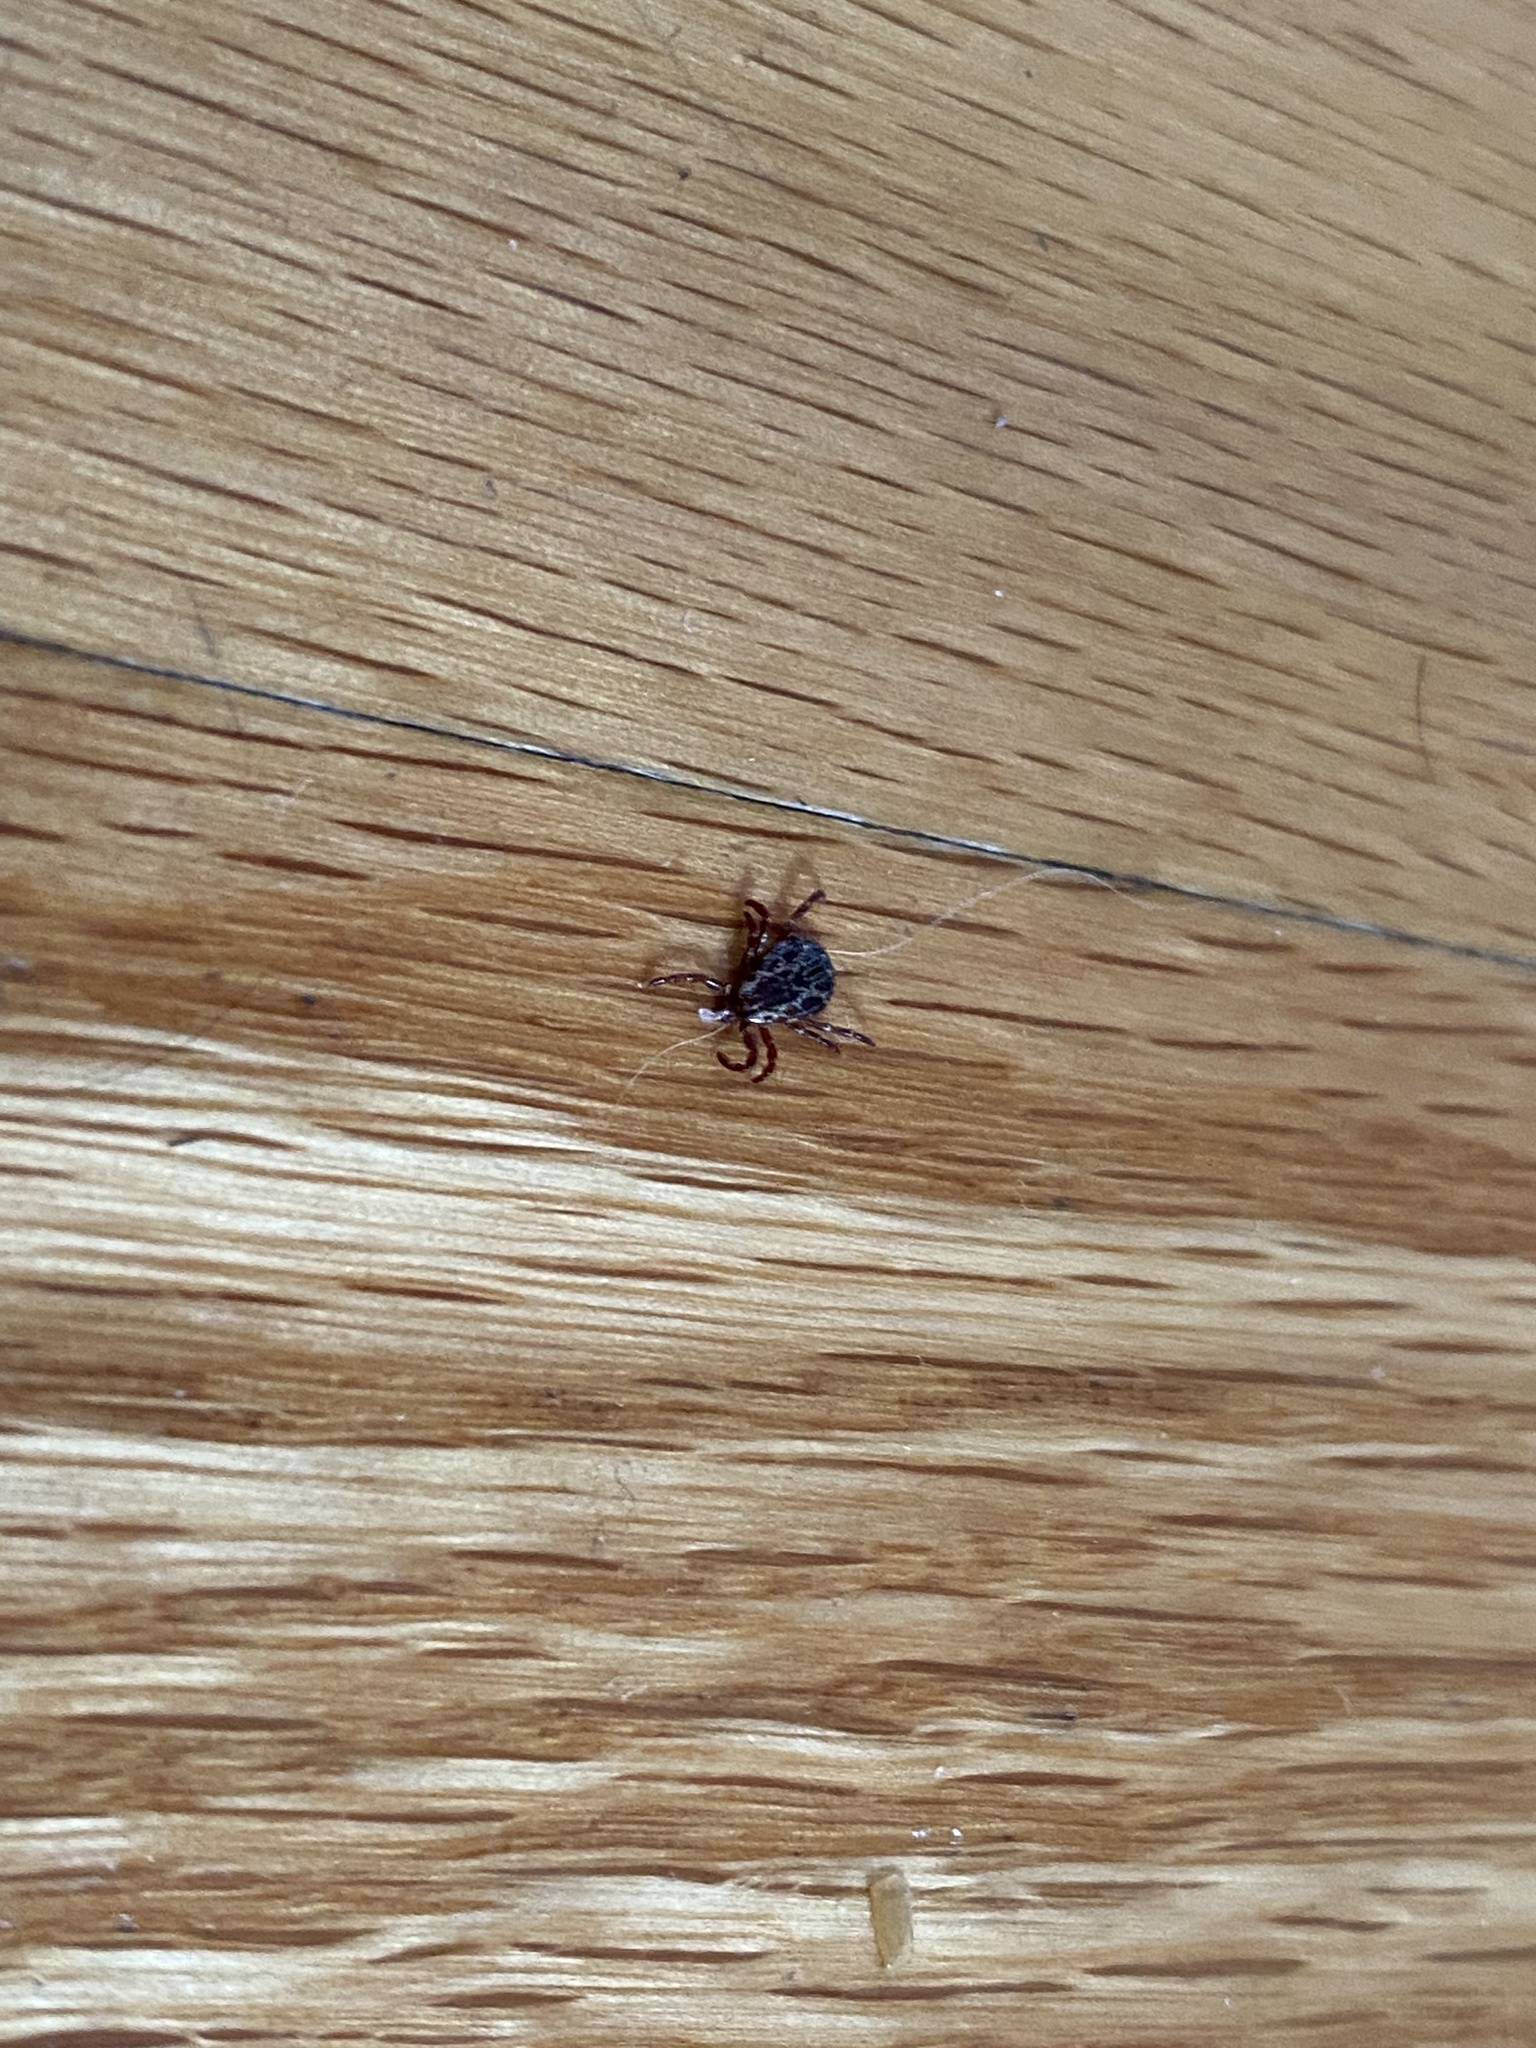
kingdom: Animalia
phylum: Arthropoda
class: Arachnida
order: Ixodida
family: Ixodidae
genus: Dermacentor
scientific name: Dermacentor variabilis
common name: American dog tick
